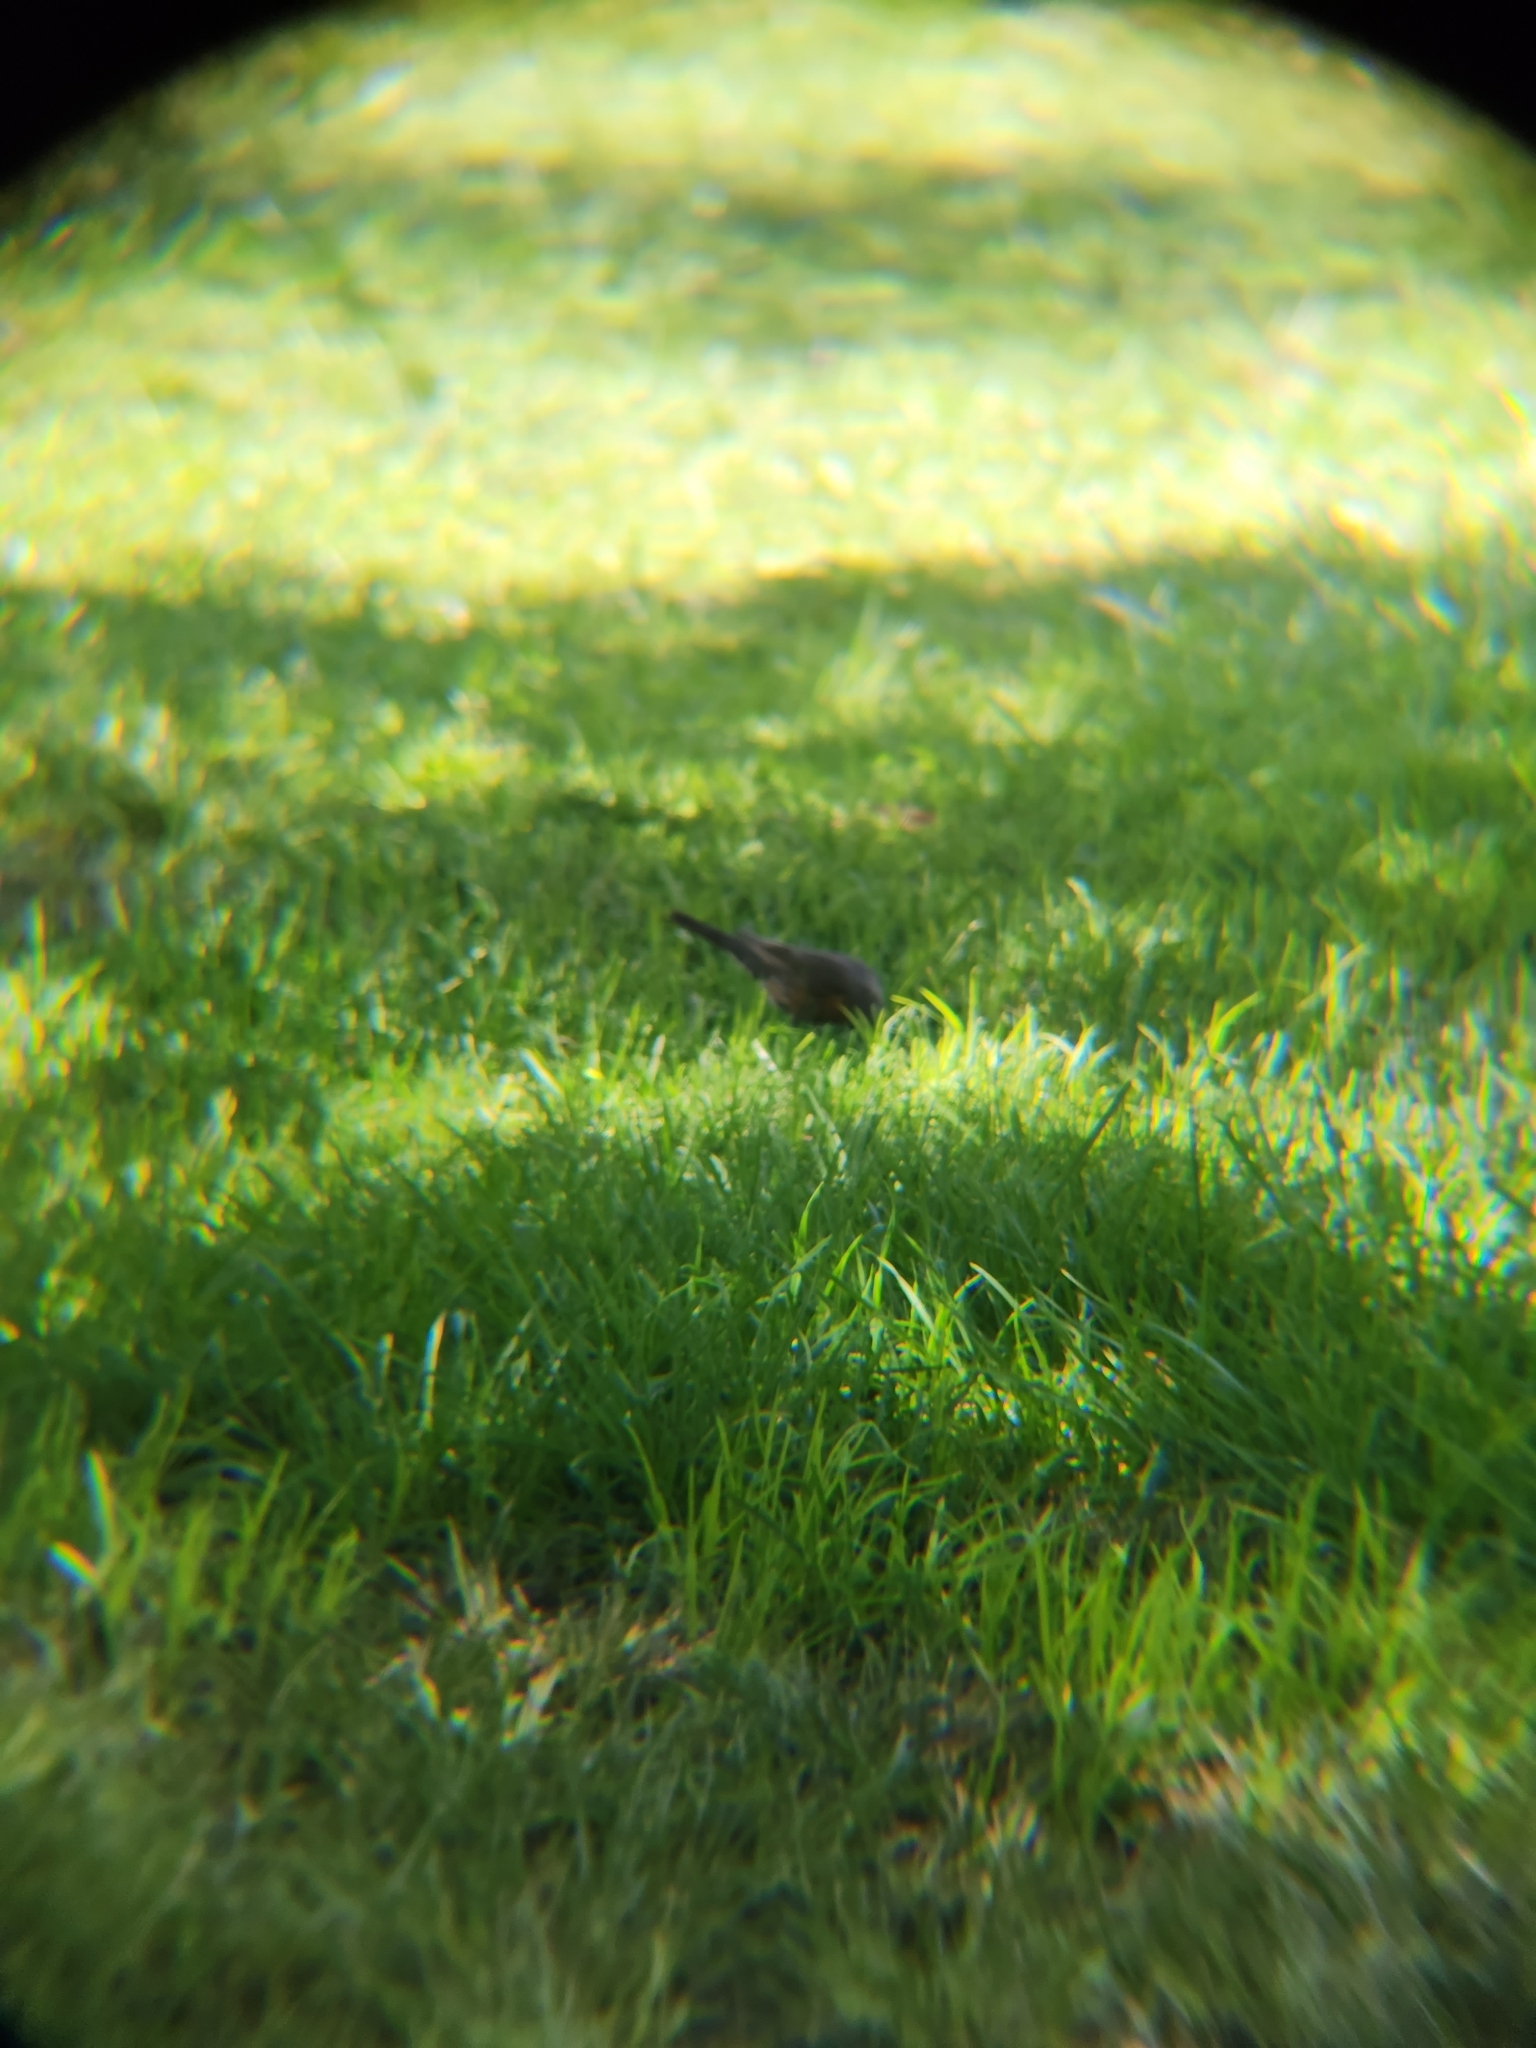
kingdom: Animalia
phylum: Chordata
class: Aves
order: Passeriformes
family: Turdidae
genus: Turdus
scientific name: Turdus migratorius
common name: American robin
